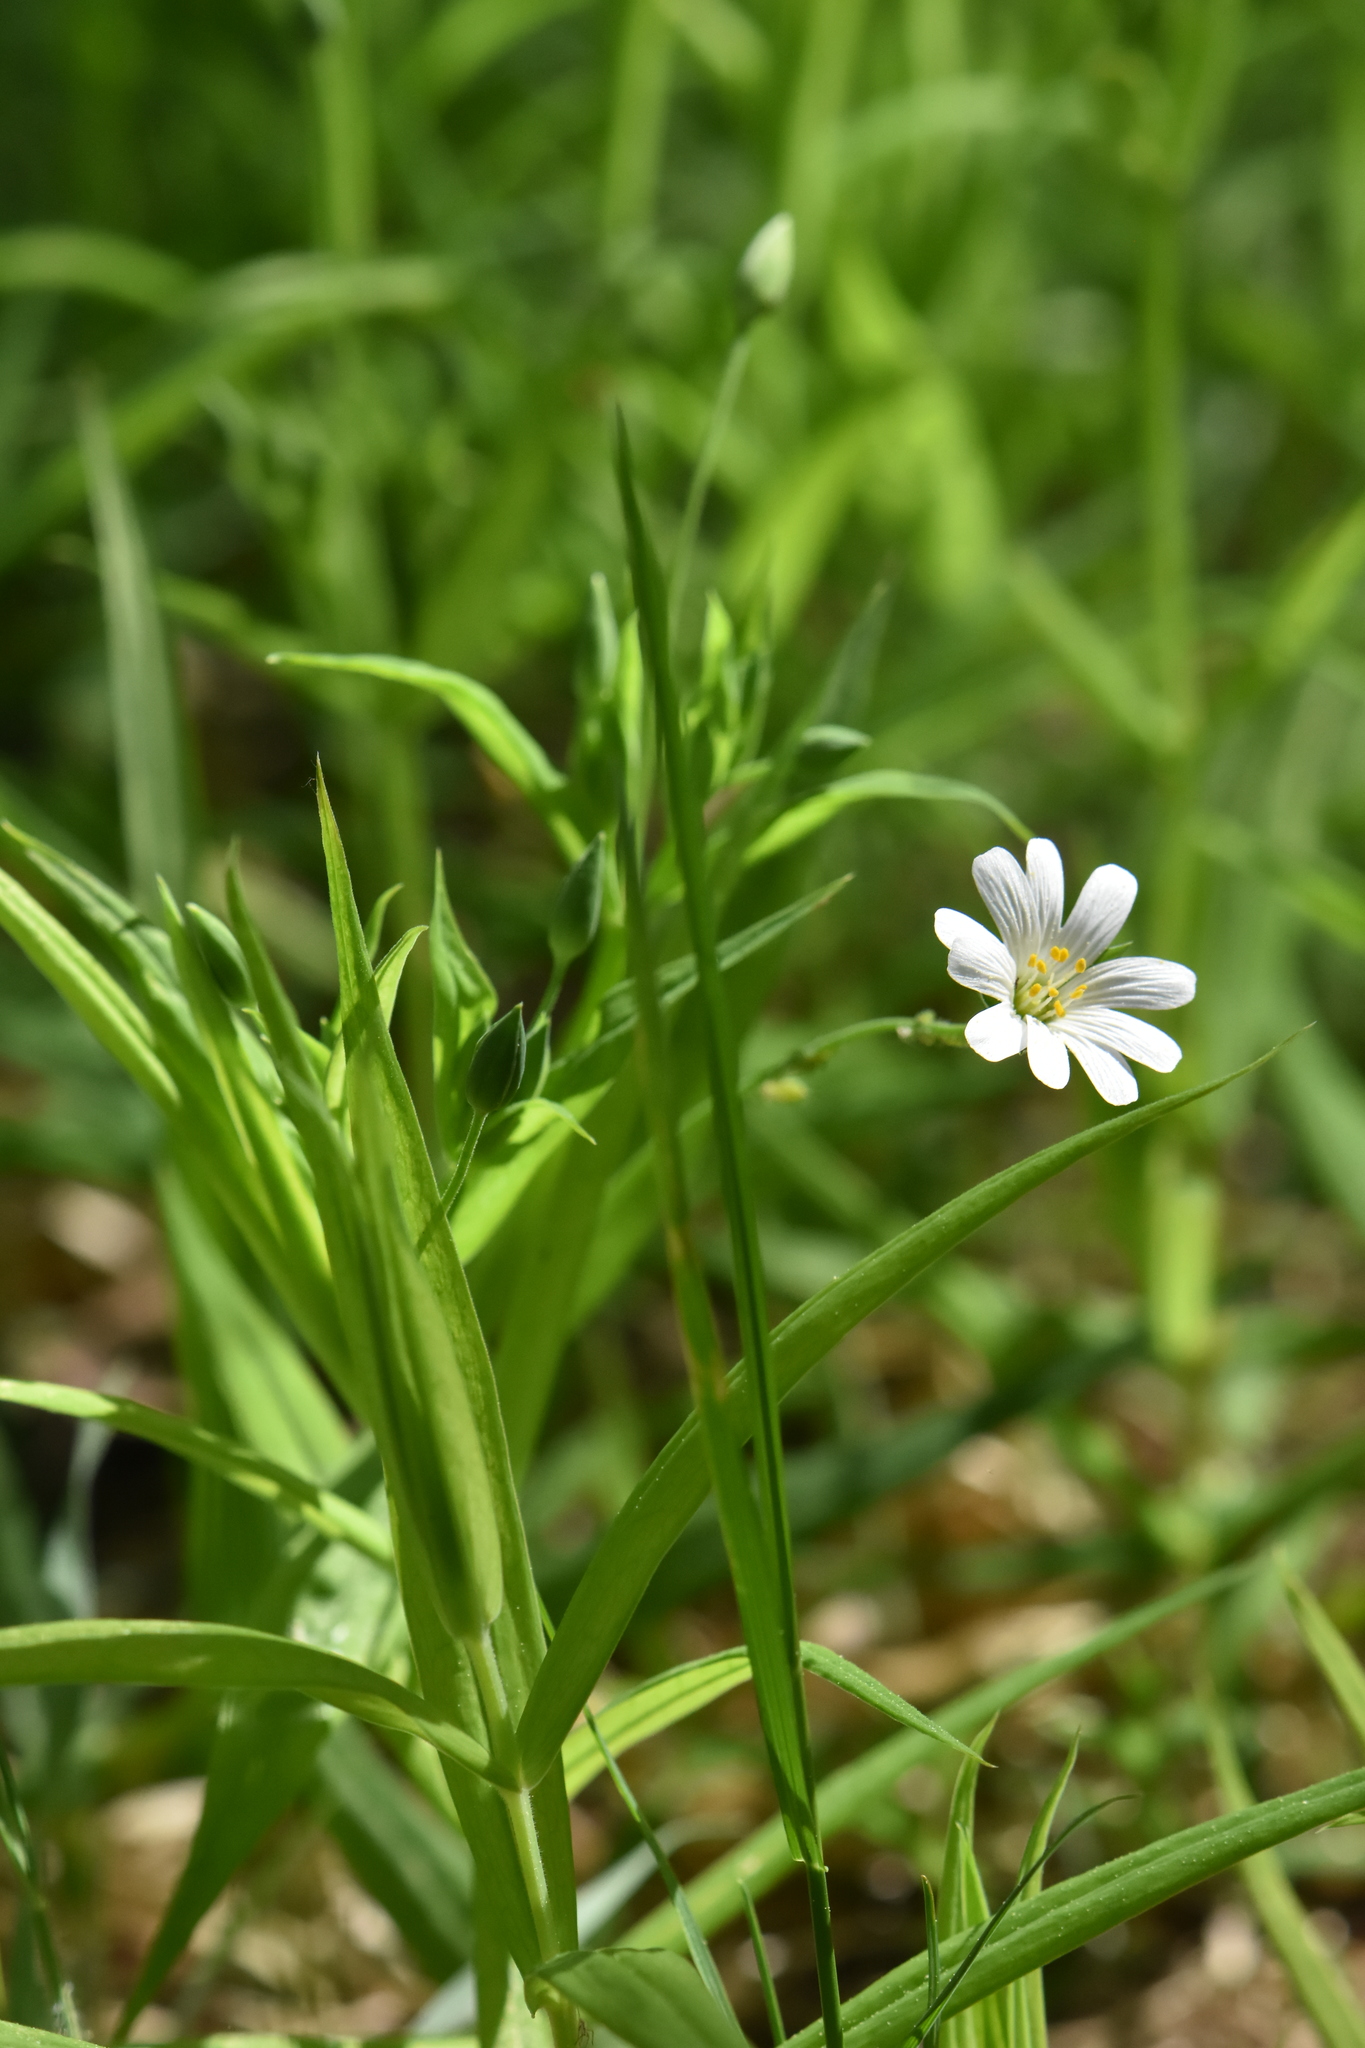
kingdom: Plantae
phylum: Tracheophyta
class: Magnoliopsida
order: Caryophyllales
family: Caryophyllaceae
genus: Rabelera
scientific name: Rabelera holostea
